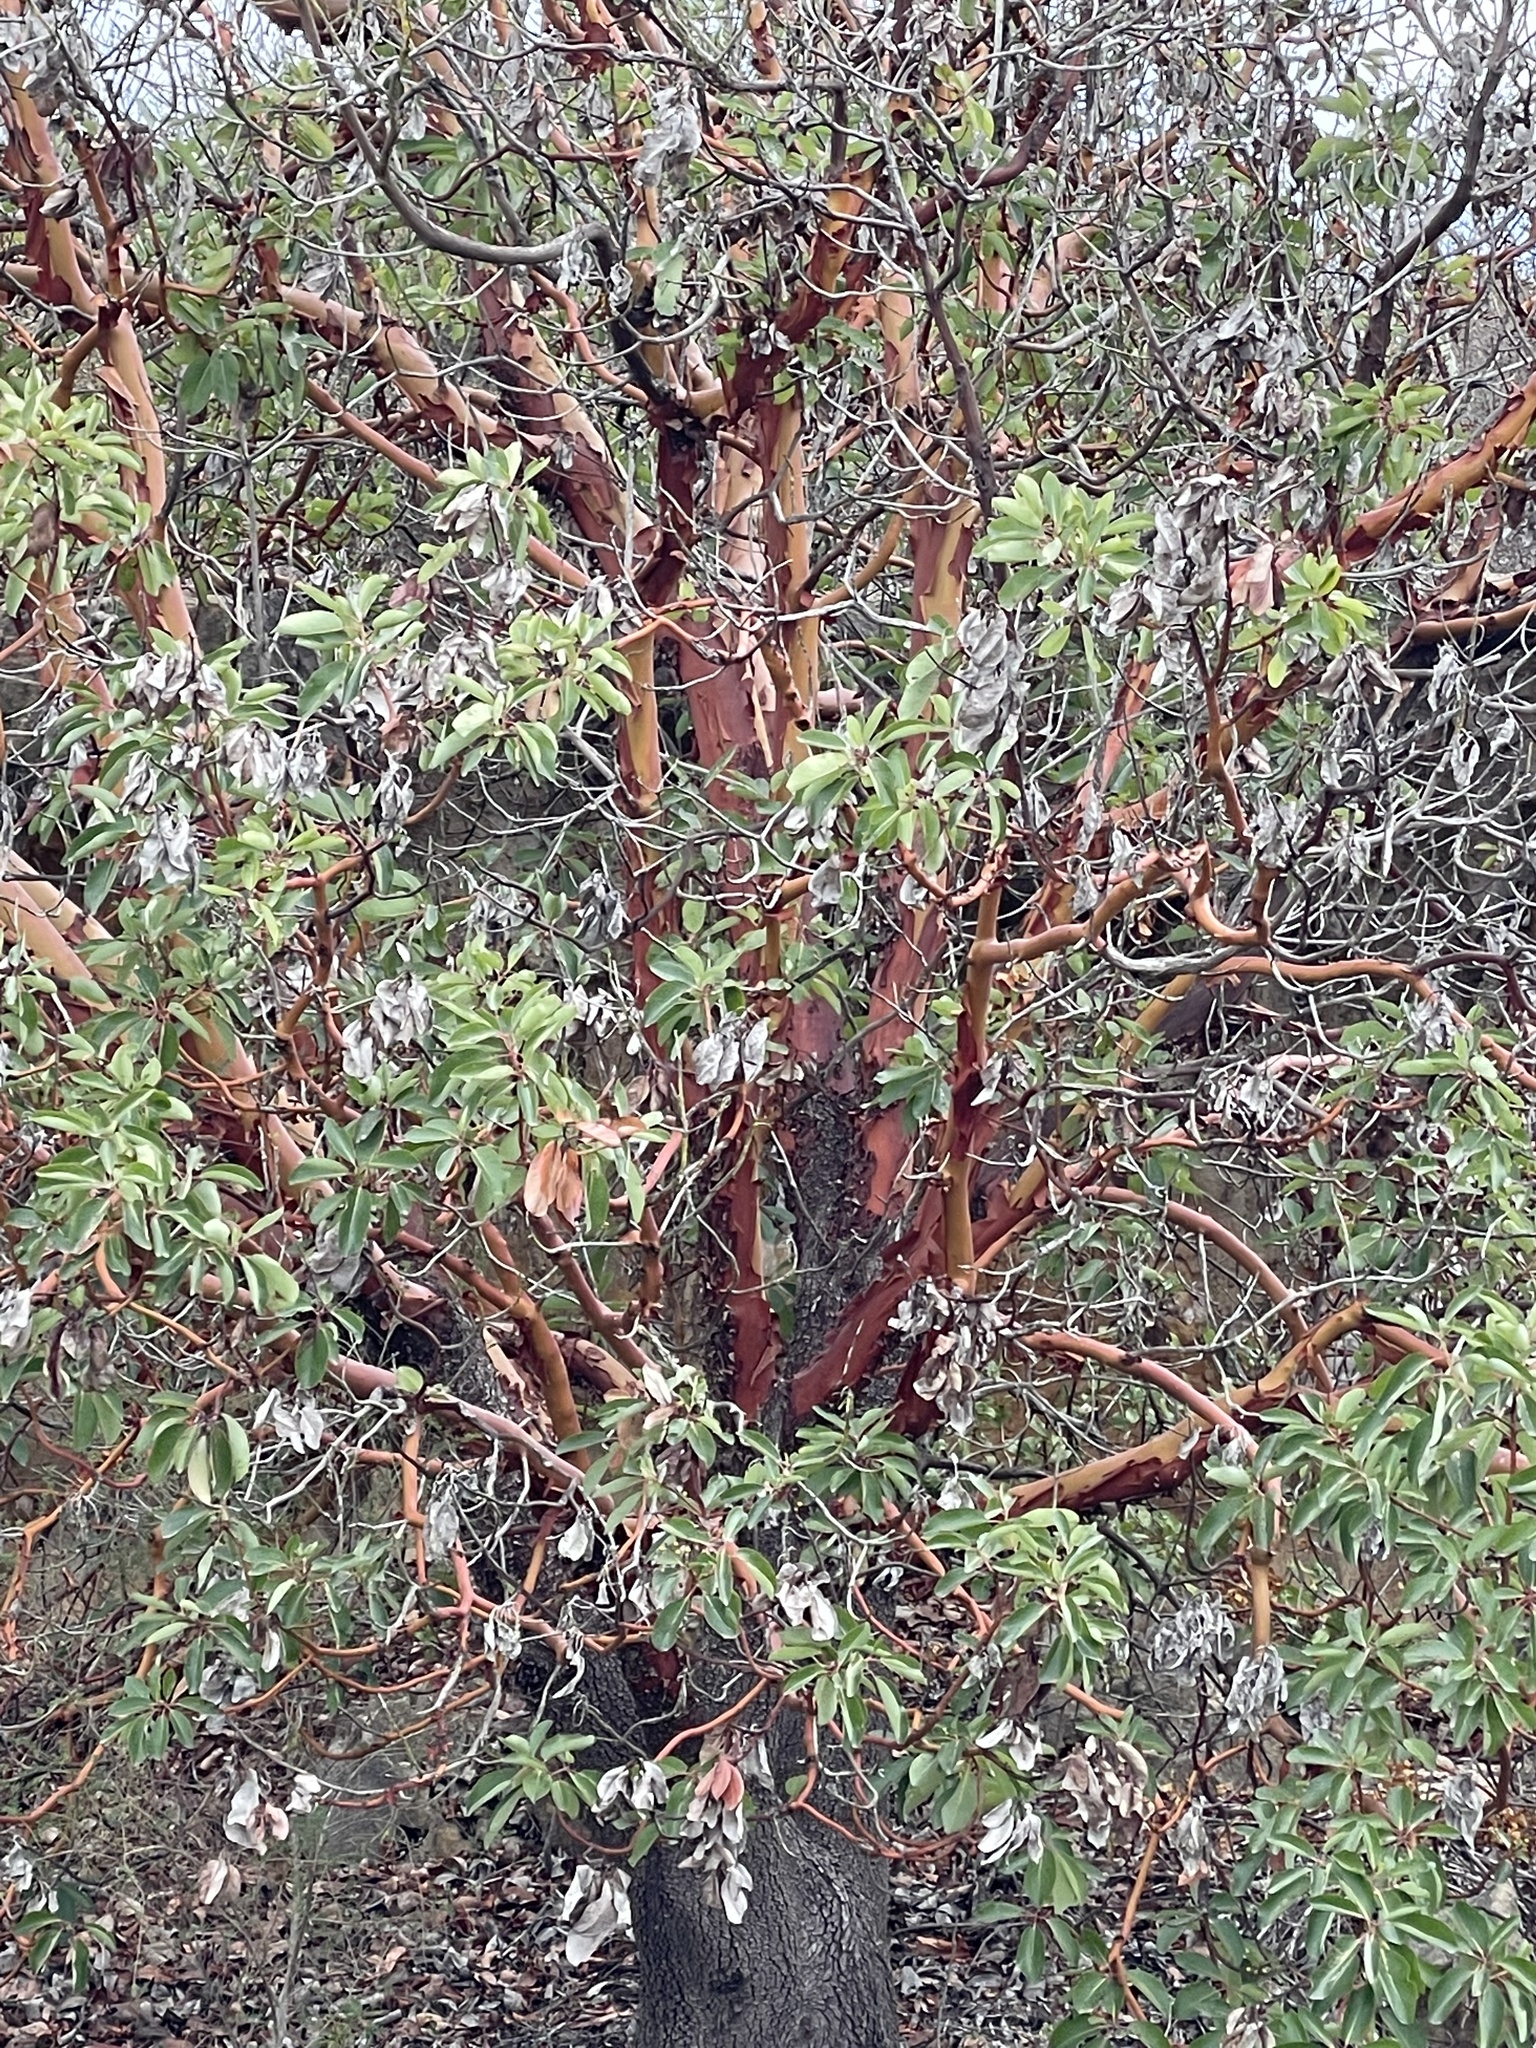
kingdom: Plantae
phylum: Tracheophyta
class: Magnoliopsida
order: Ericales
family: Ericaceae
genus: Arbutus
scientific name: Arbutus menziesii
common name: Pacific madrone
